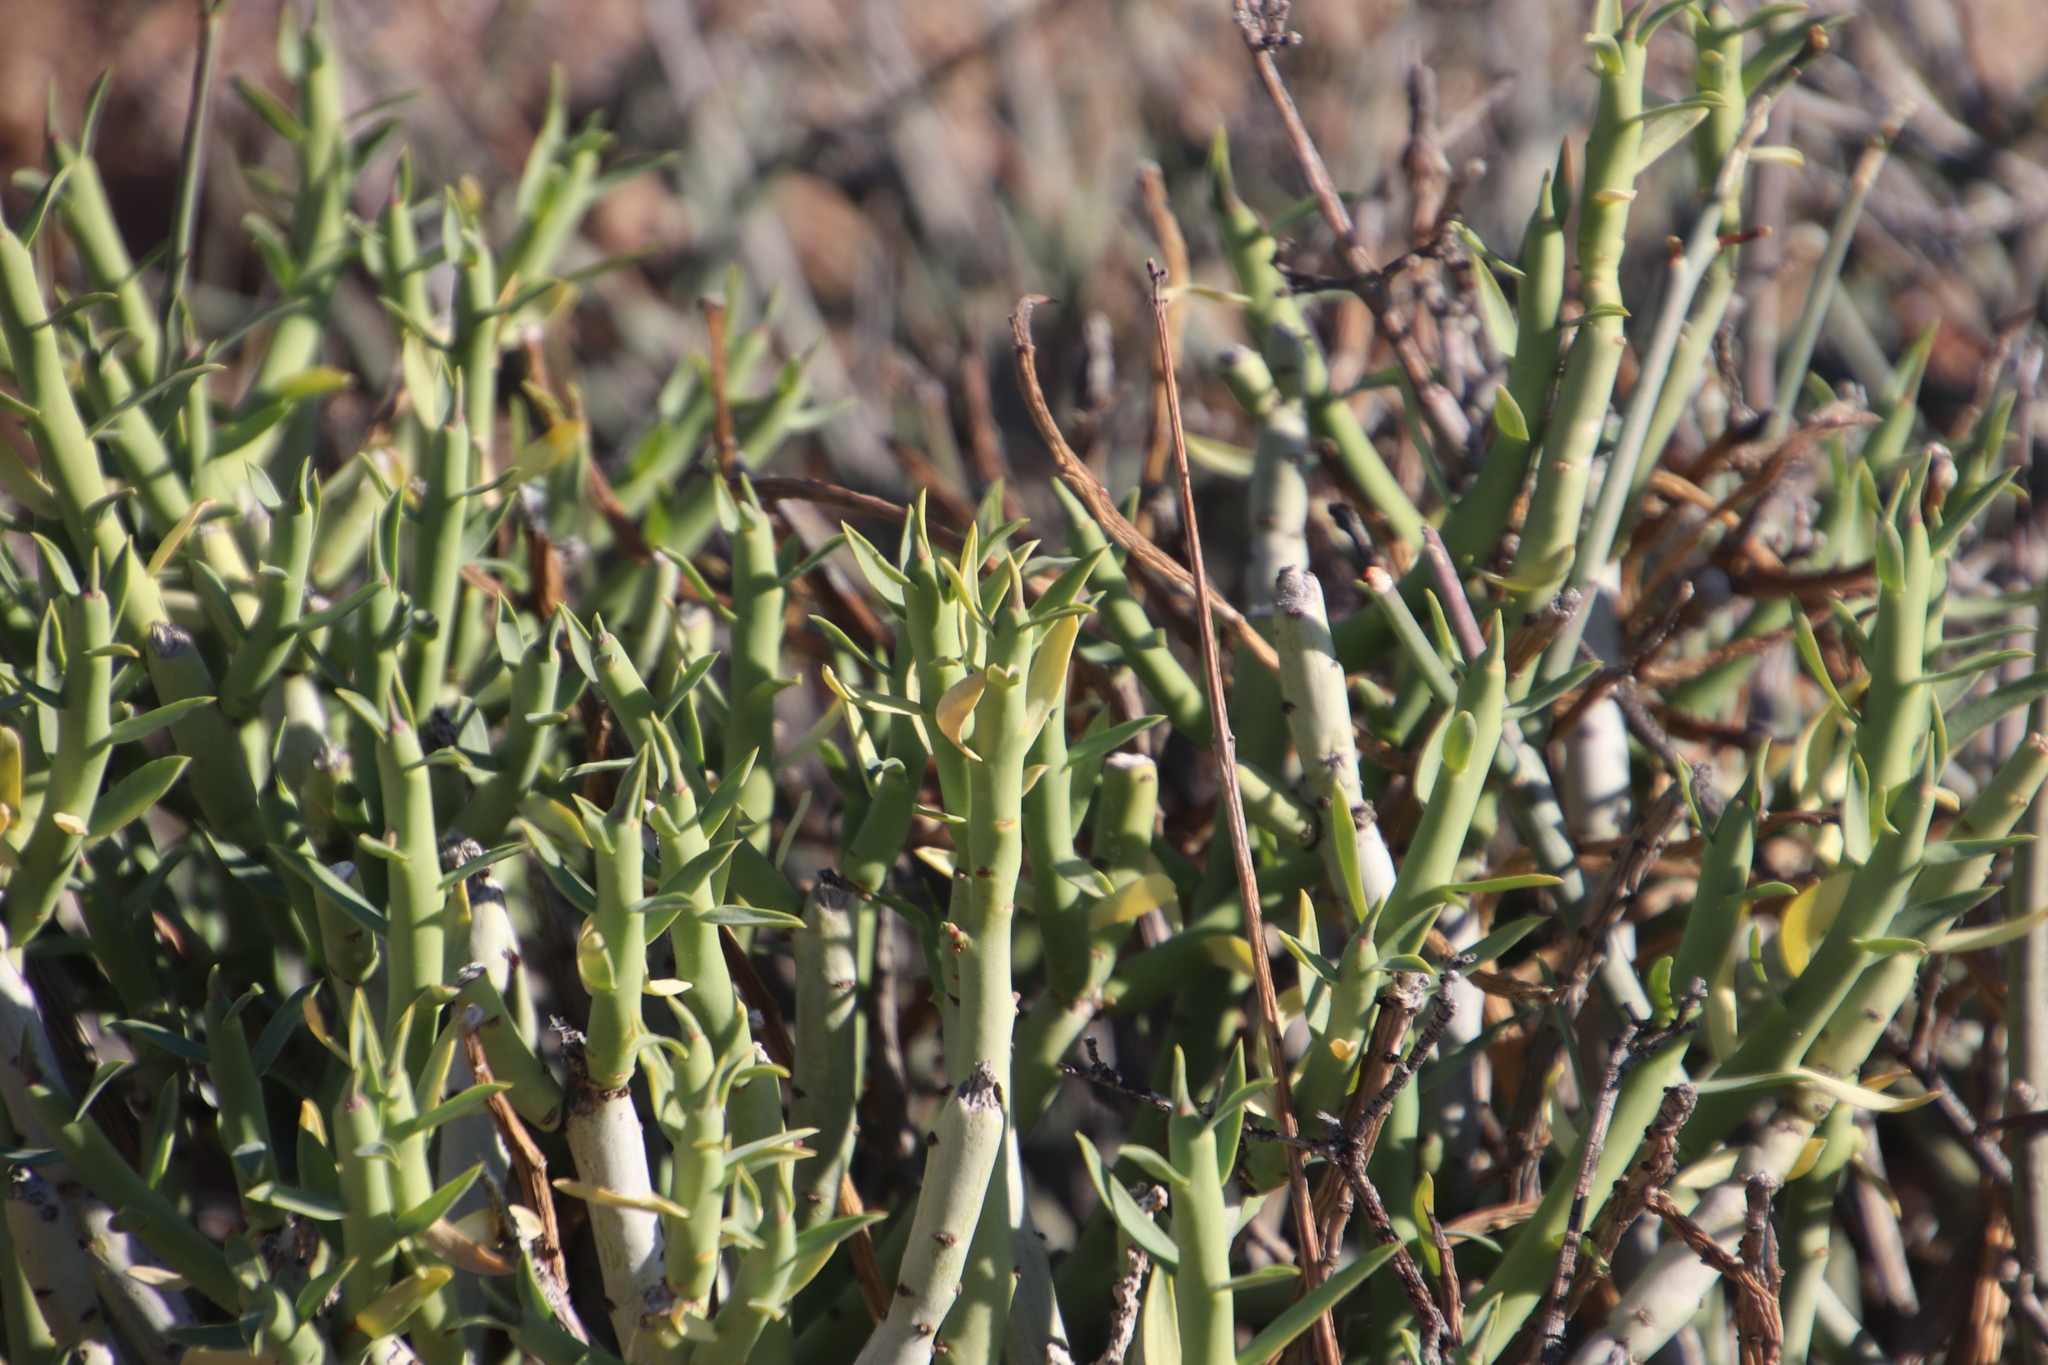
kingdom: Plantae
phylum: Tracheophyta
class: Magnoliopsida
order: Malpighiales
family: Euphorbiaceae
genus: Euphorbia
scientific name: Euphorbia mauritanica
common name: Jackal's-food
